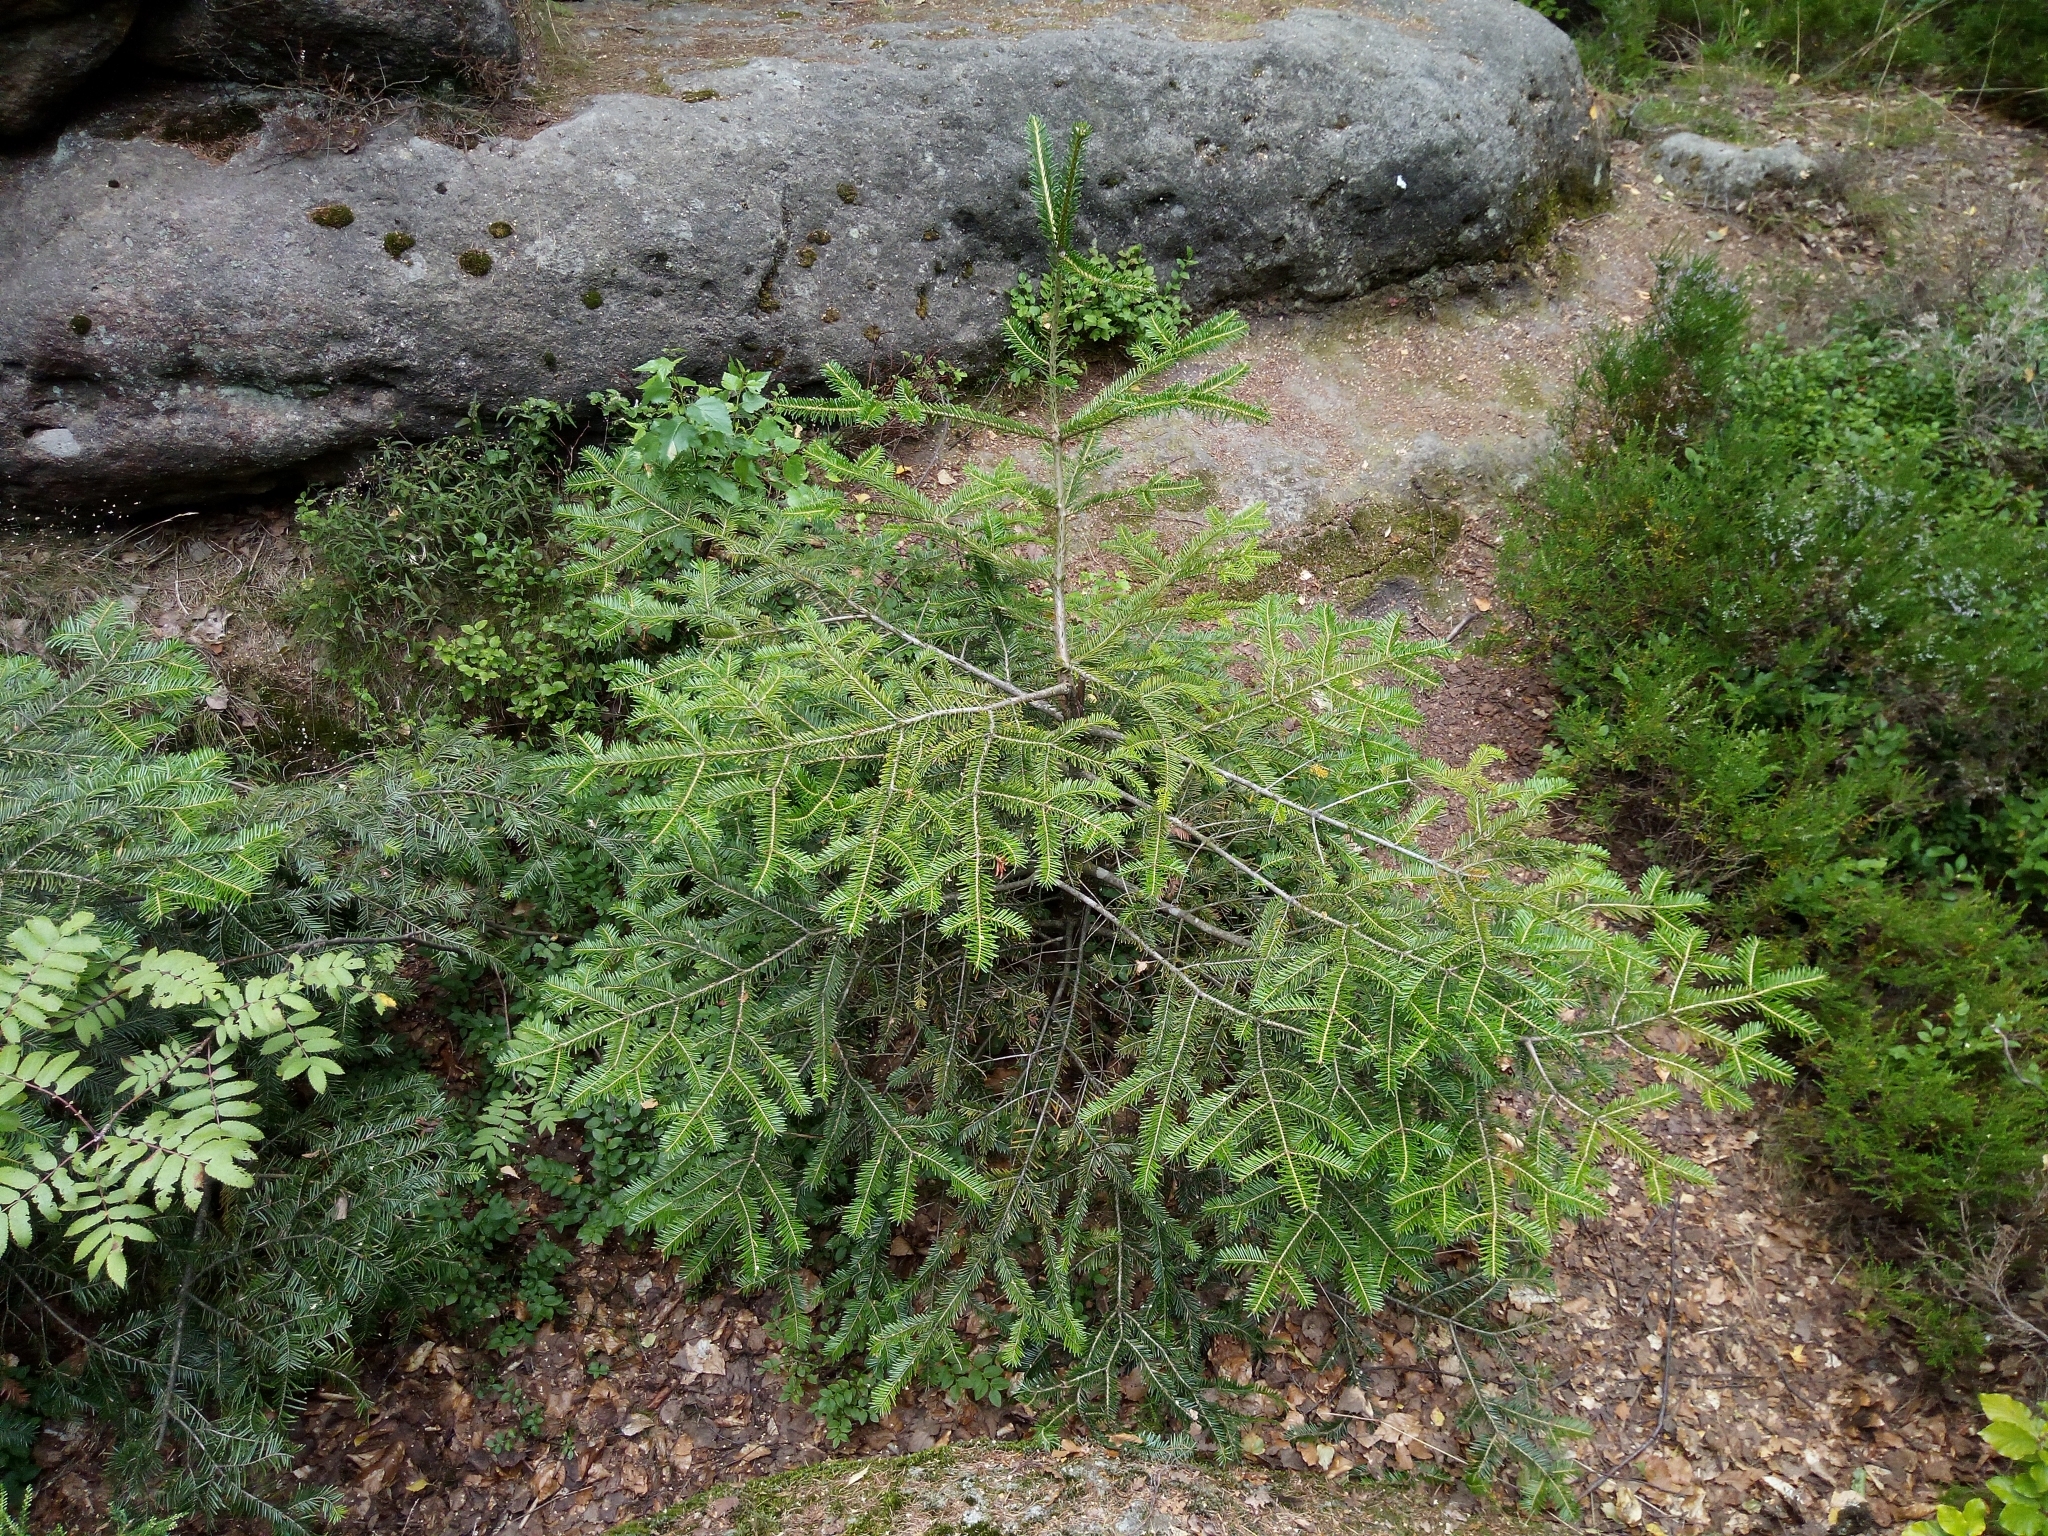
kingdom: Plantae
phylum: Tracheophyta
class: Pinopsida
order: Pinales
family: Pinaceae
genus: Abies
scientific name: Abies alba
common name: Silver fir
